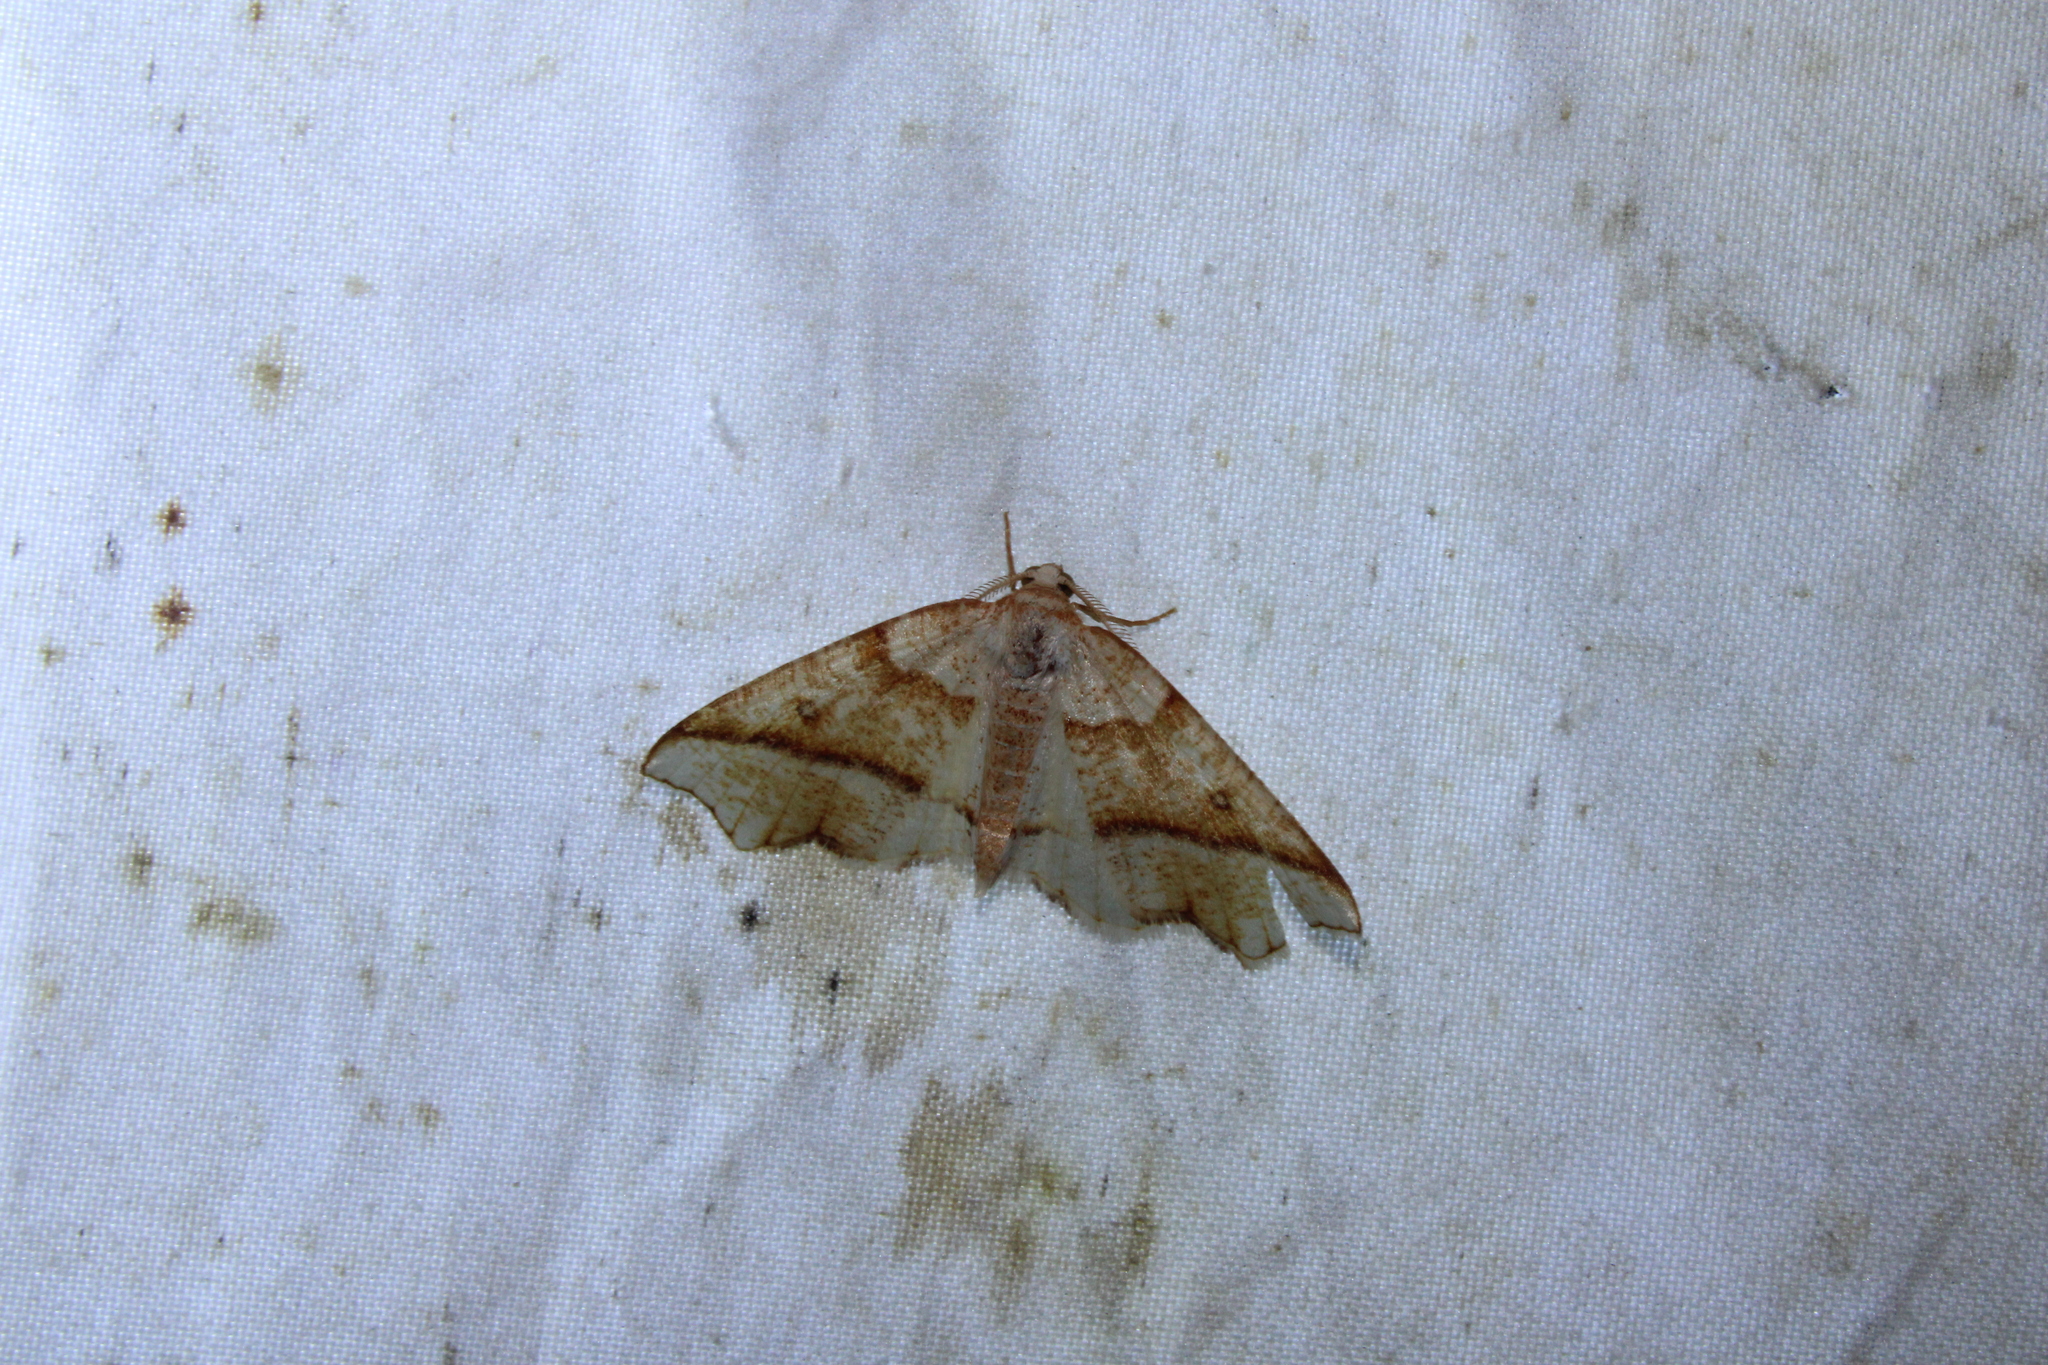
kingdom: Animalia
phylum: Arthropoda
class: Insecta
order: Lepidoptera
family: Geometridae
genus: Plagodis
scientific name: Plagodis alcoolaria
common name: Hollow-spotted plagodis
